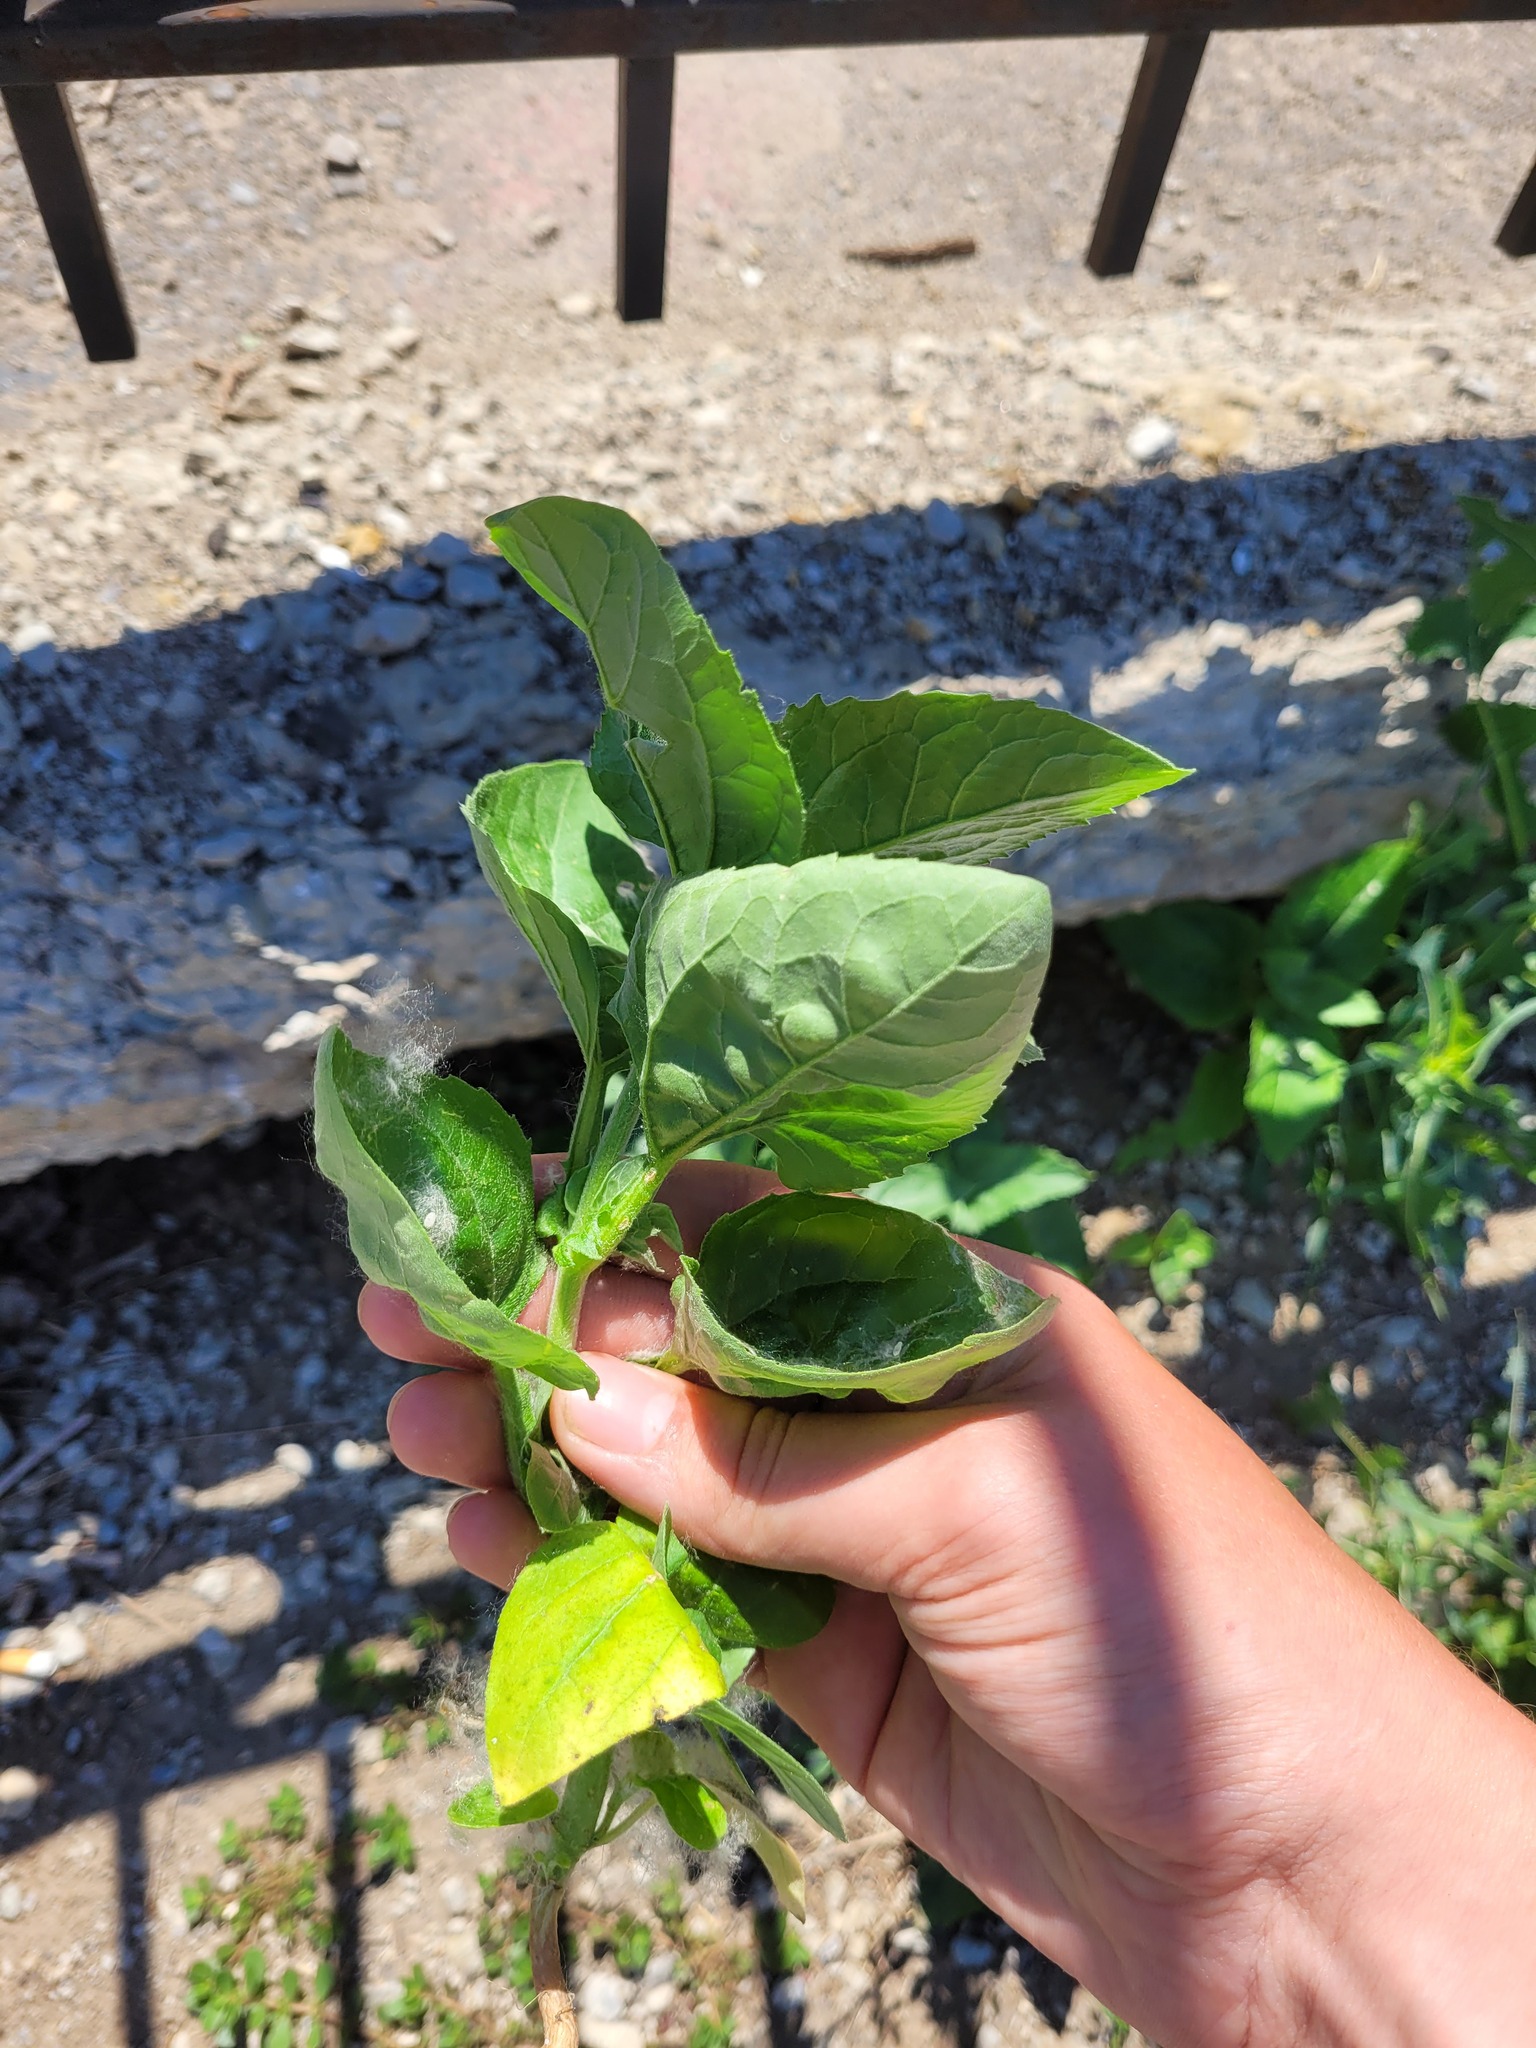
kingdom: Plantae
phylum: Tracheophyta
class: Magnoliopsida
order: Asterales
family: Asteraceae
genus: Heliopsis
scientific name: Heliopsis helianthoides
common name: False sunflower
